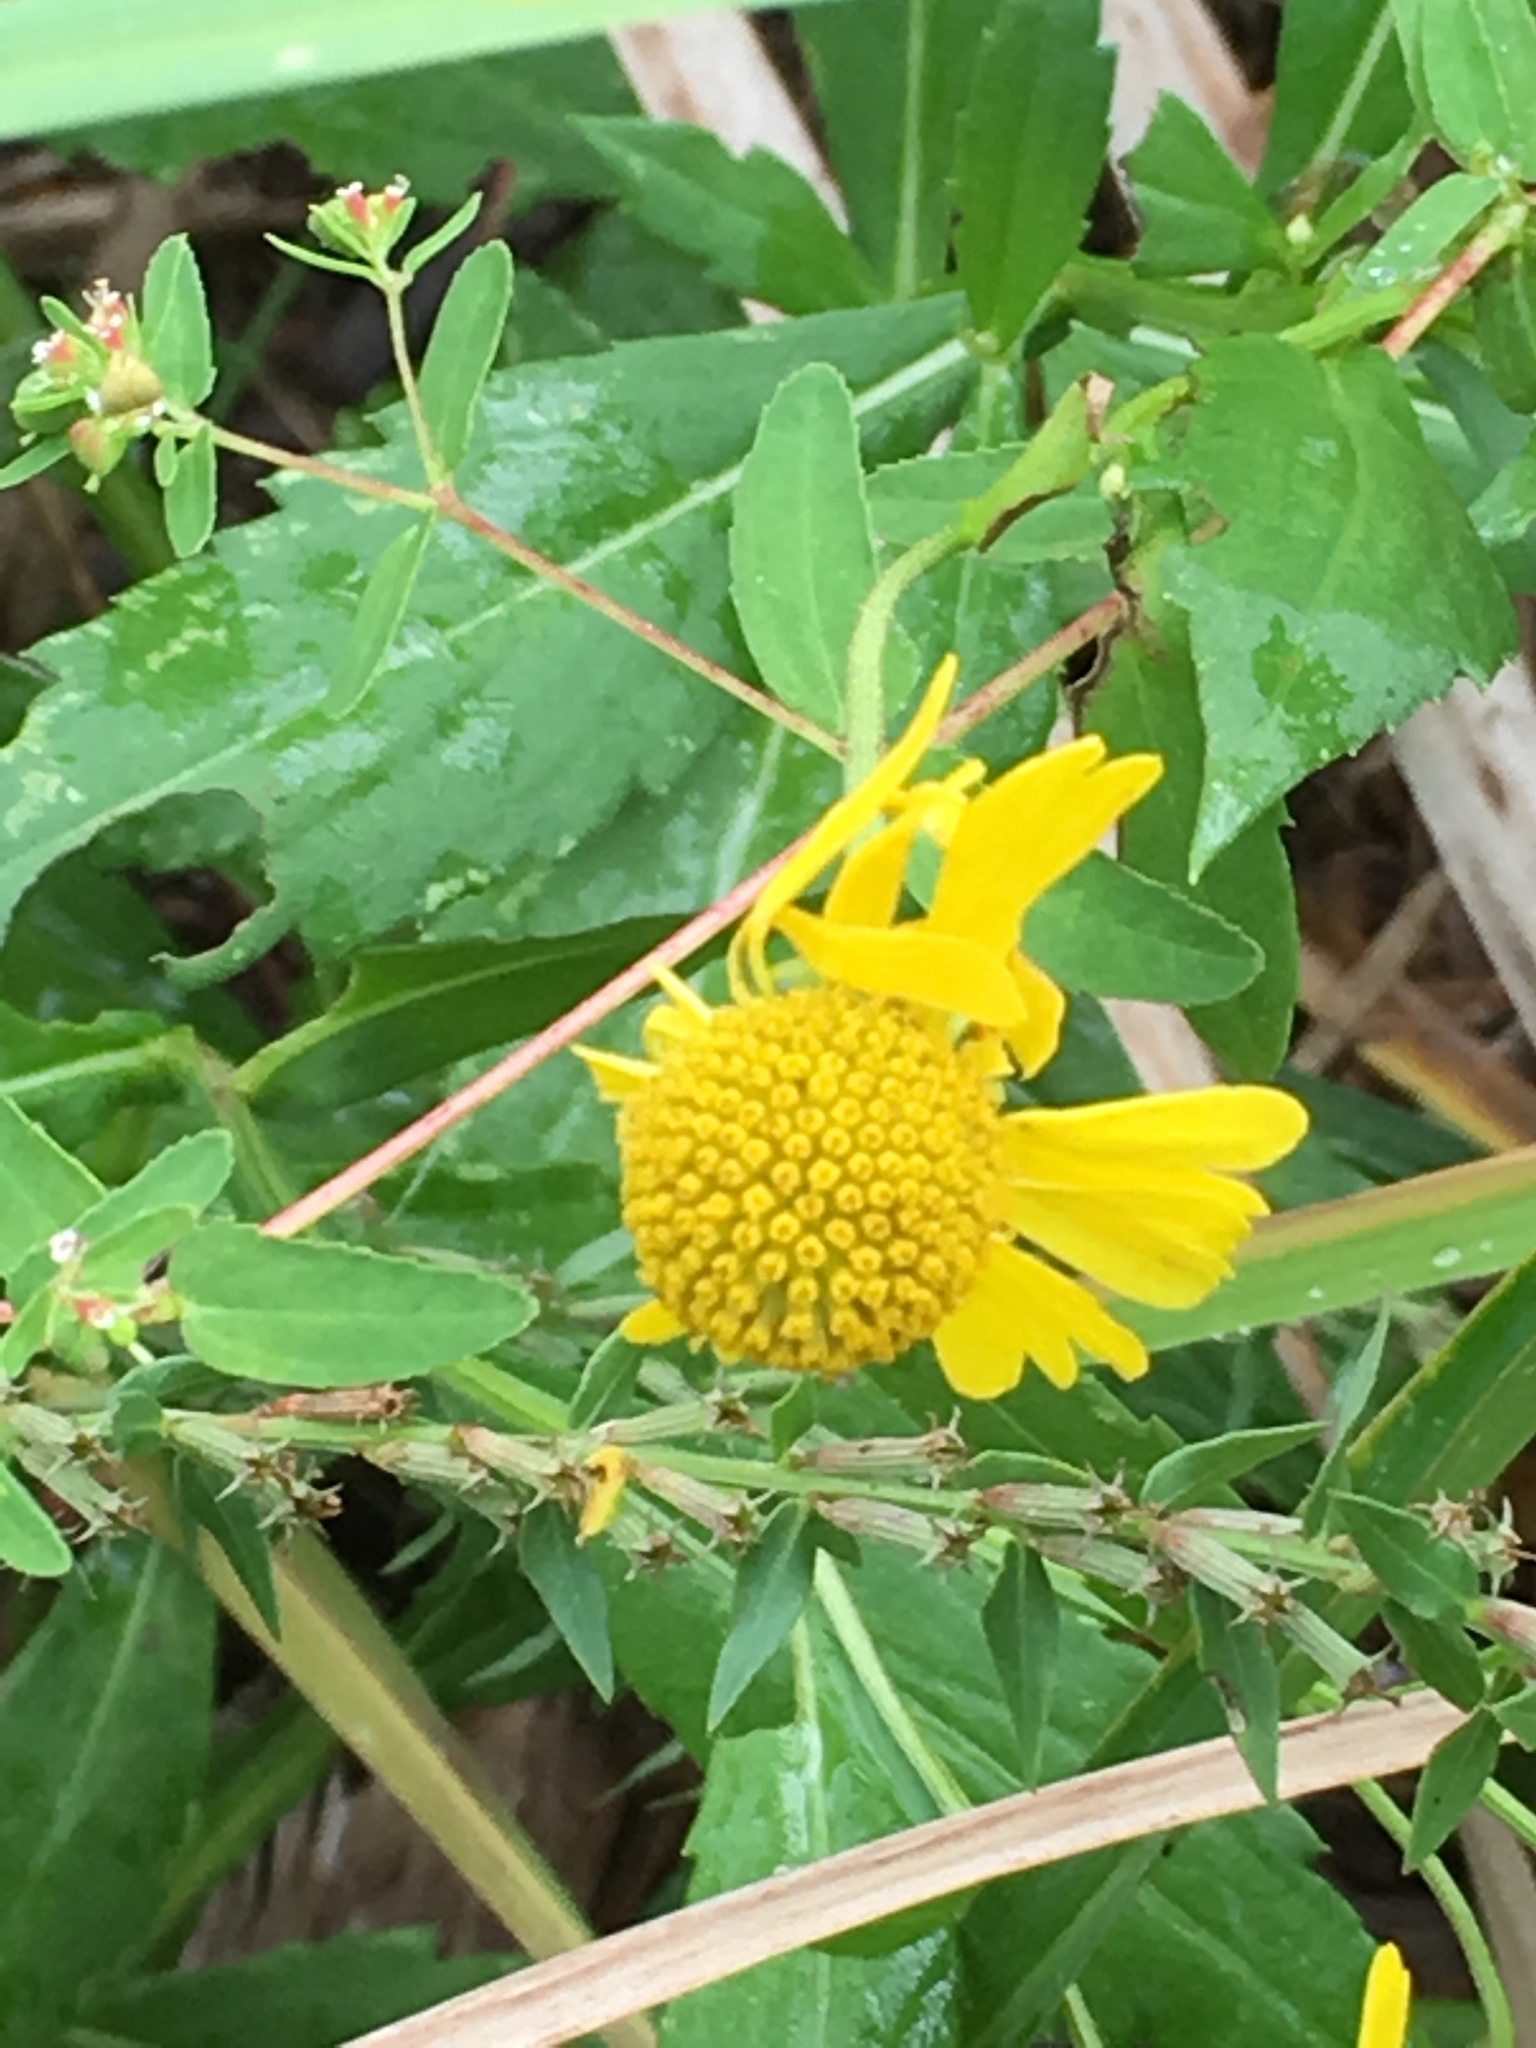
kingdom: Plantae
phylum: Tracheophyta
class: Magnoliopsida
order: Asterales
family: Asteraceae
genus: Helenium
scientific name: Helenium autumnale
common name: Sneezeweed
